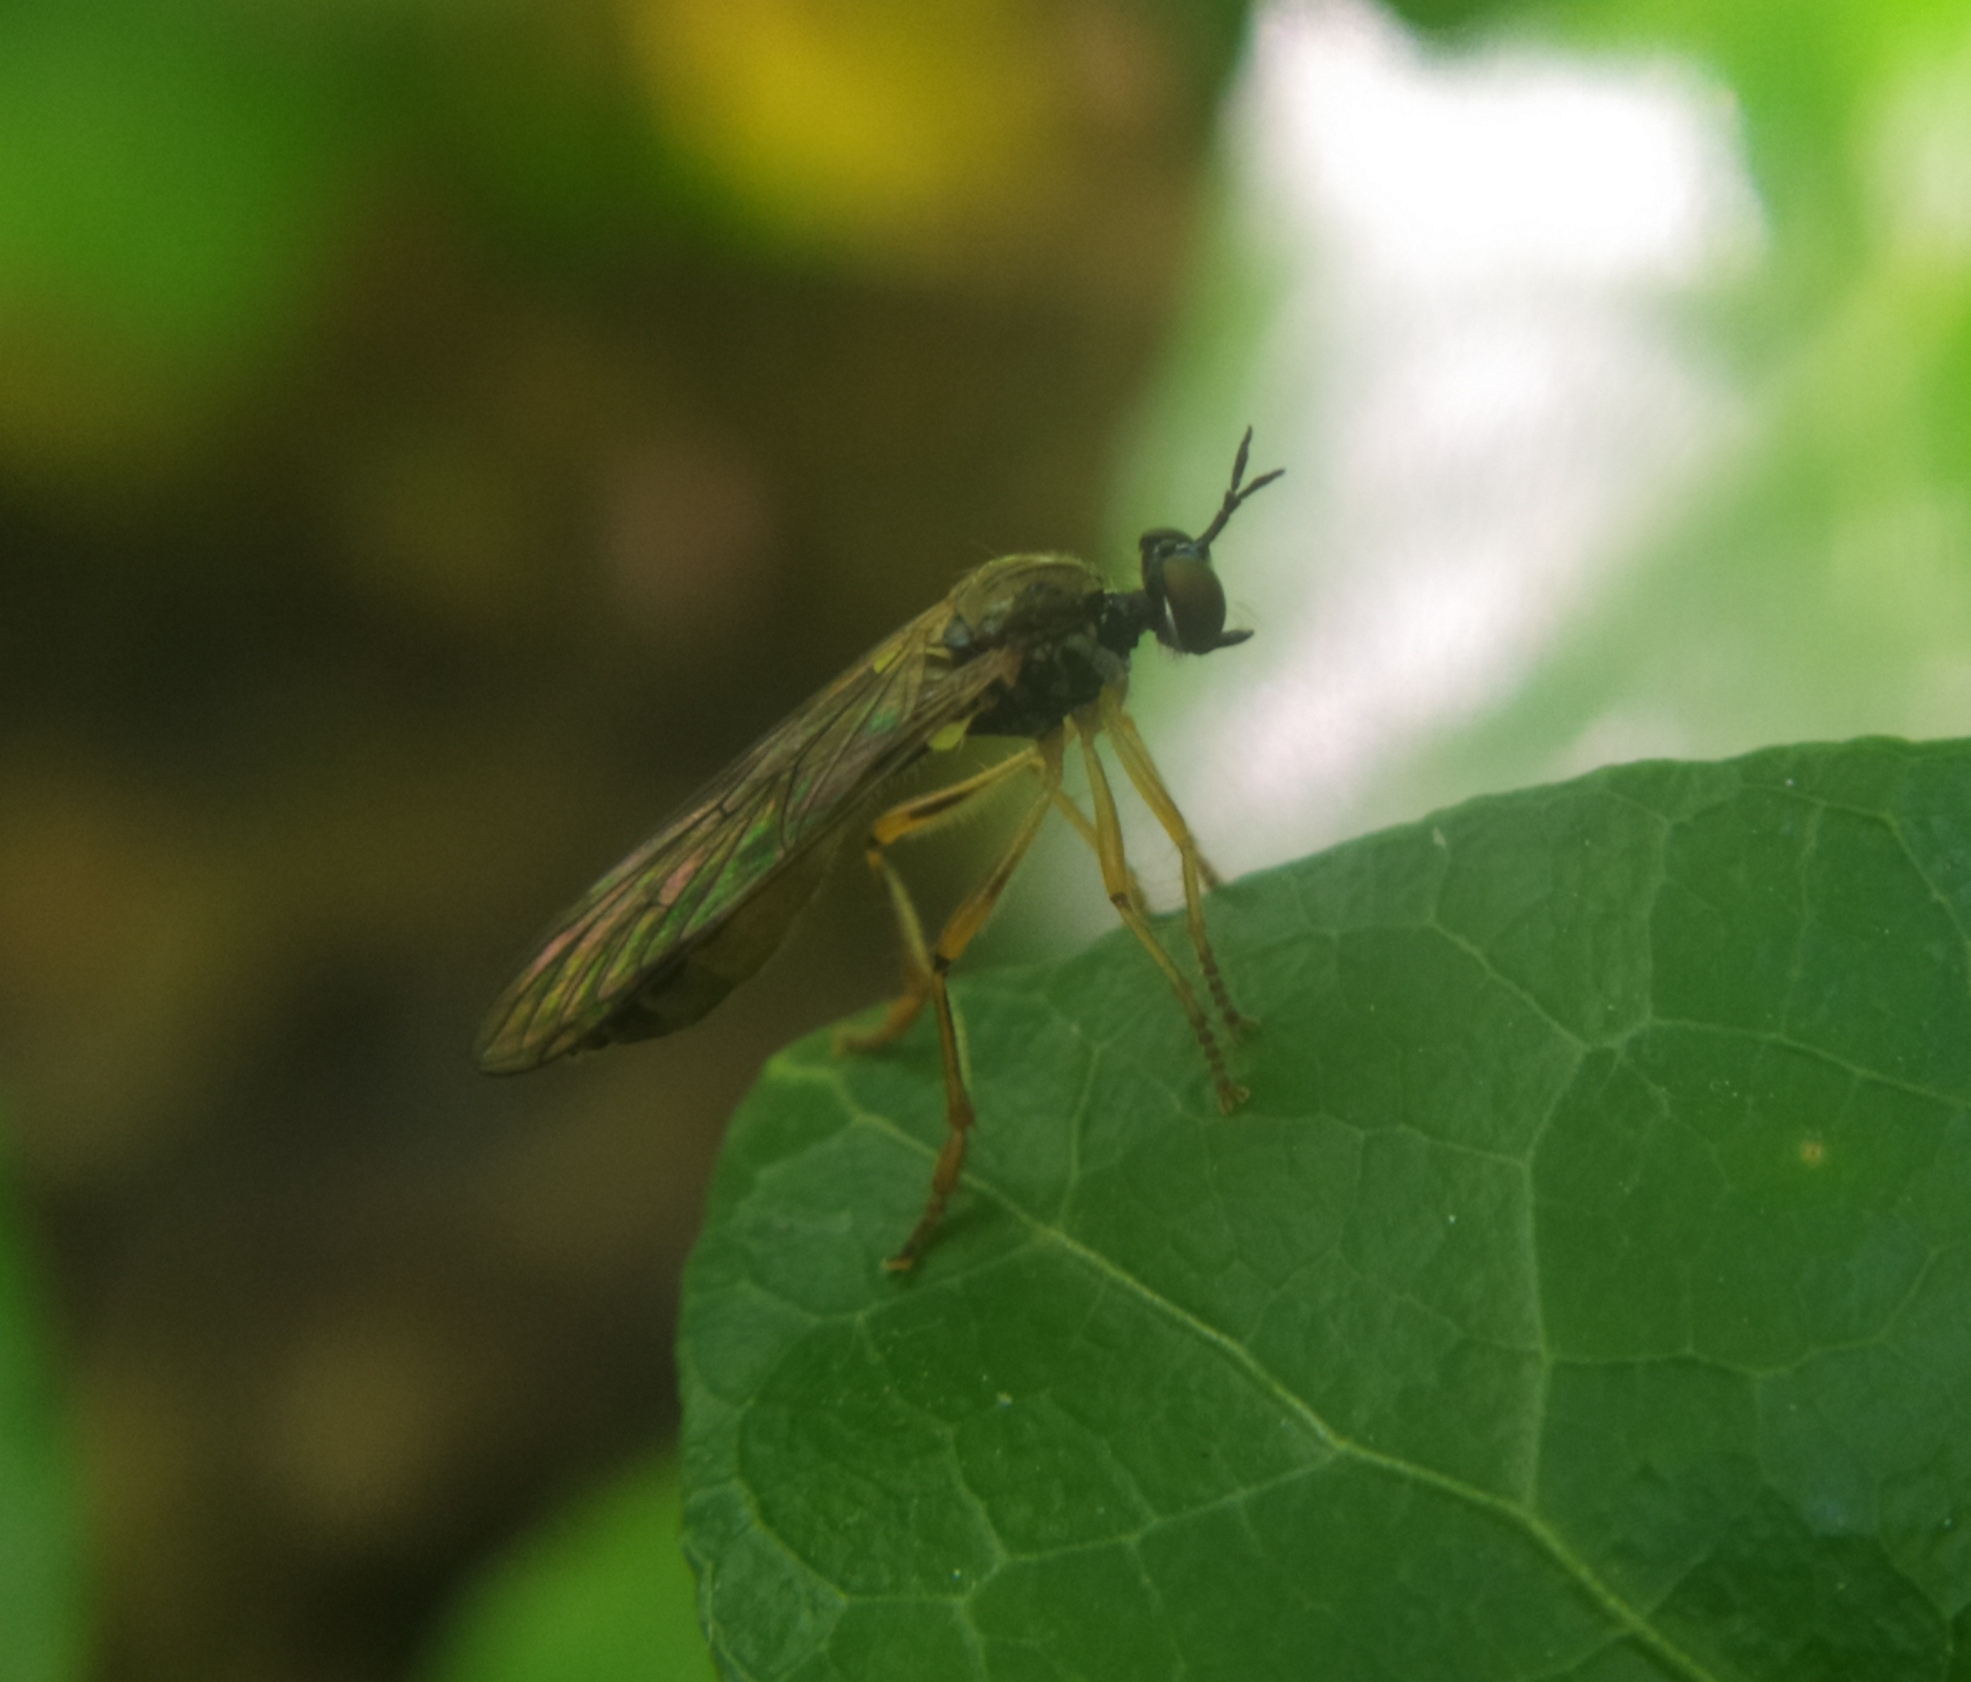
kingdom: Animalia
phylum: Arthropoda
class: Insecta
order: Diptera
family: Asilidae
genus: Dioctria
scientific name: Dioctria linearis
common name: Small yellow-legged robberfly
